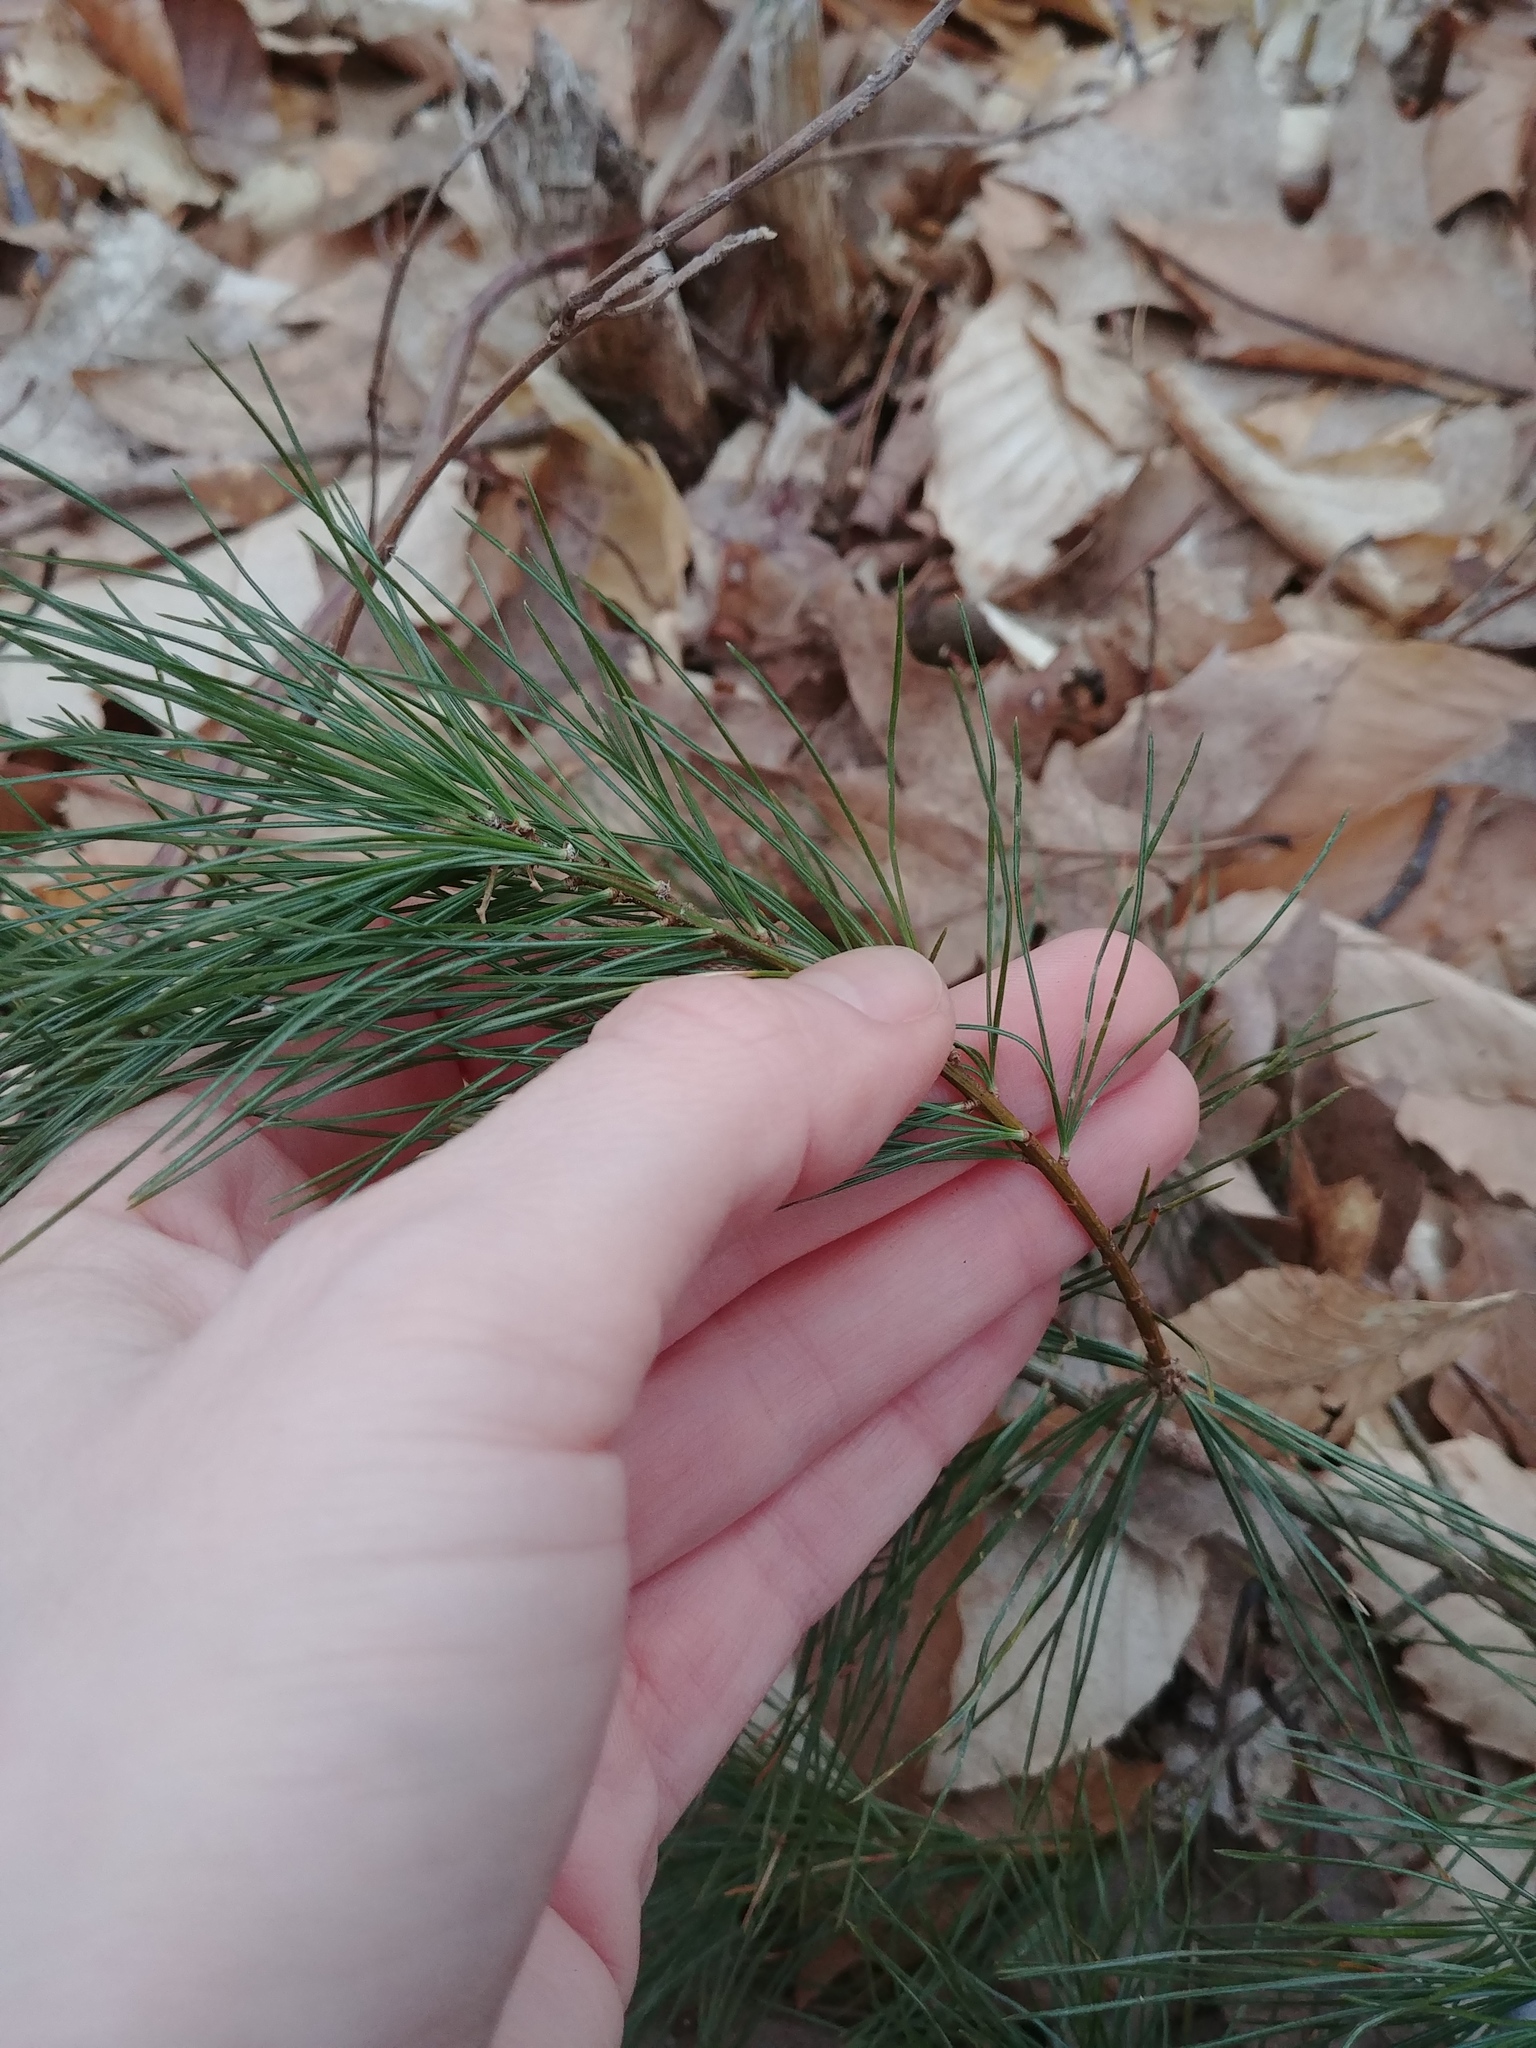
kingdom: Plantae
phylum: Tracheophyta
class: Pinopsida
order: Pinales
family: Pinaceae
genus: Pinus
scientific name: Pinus strobus
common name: Weymouth pine
